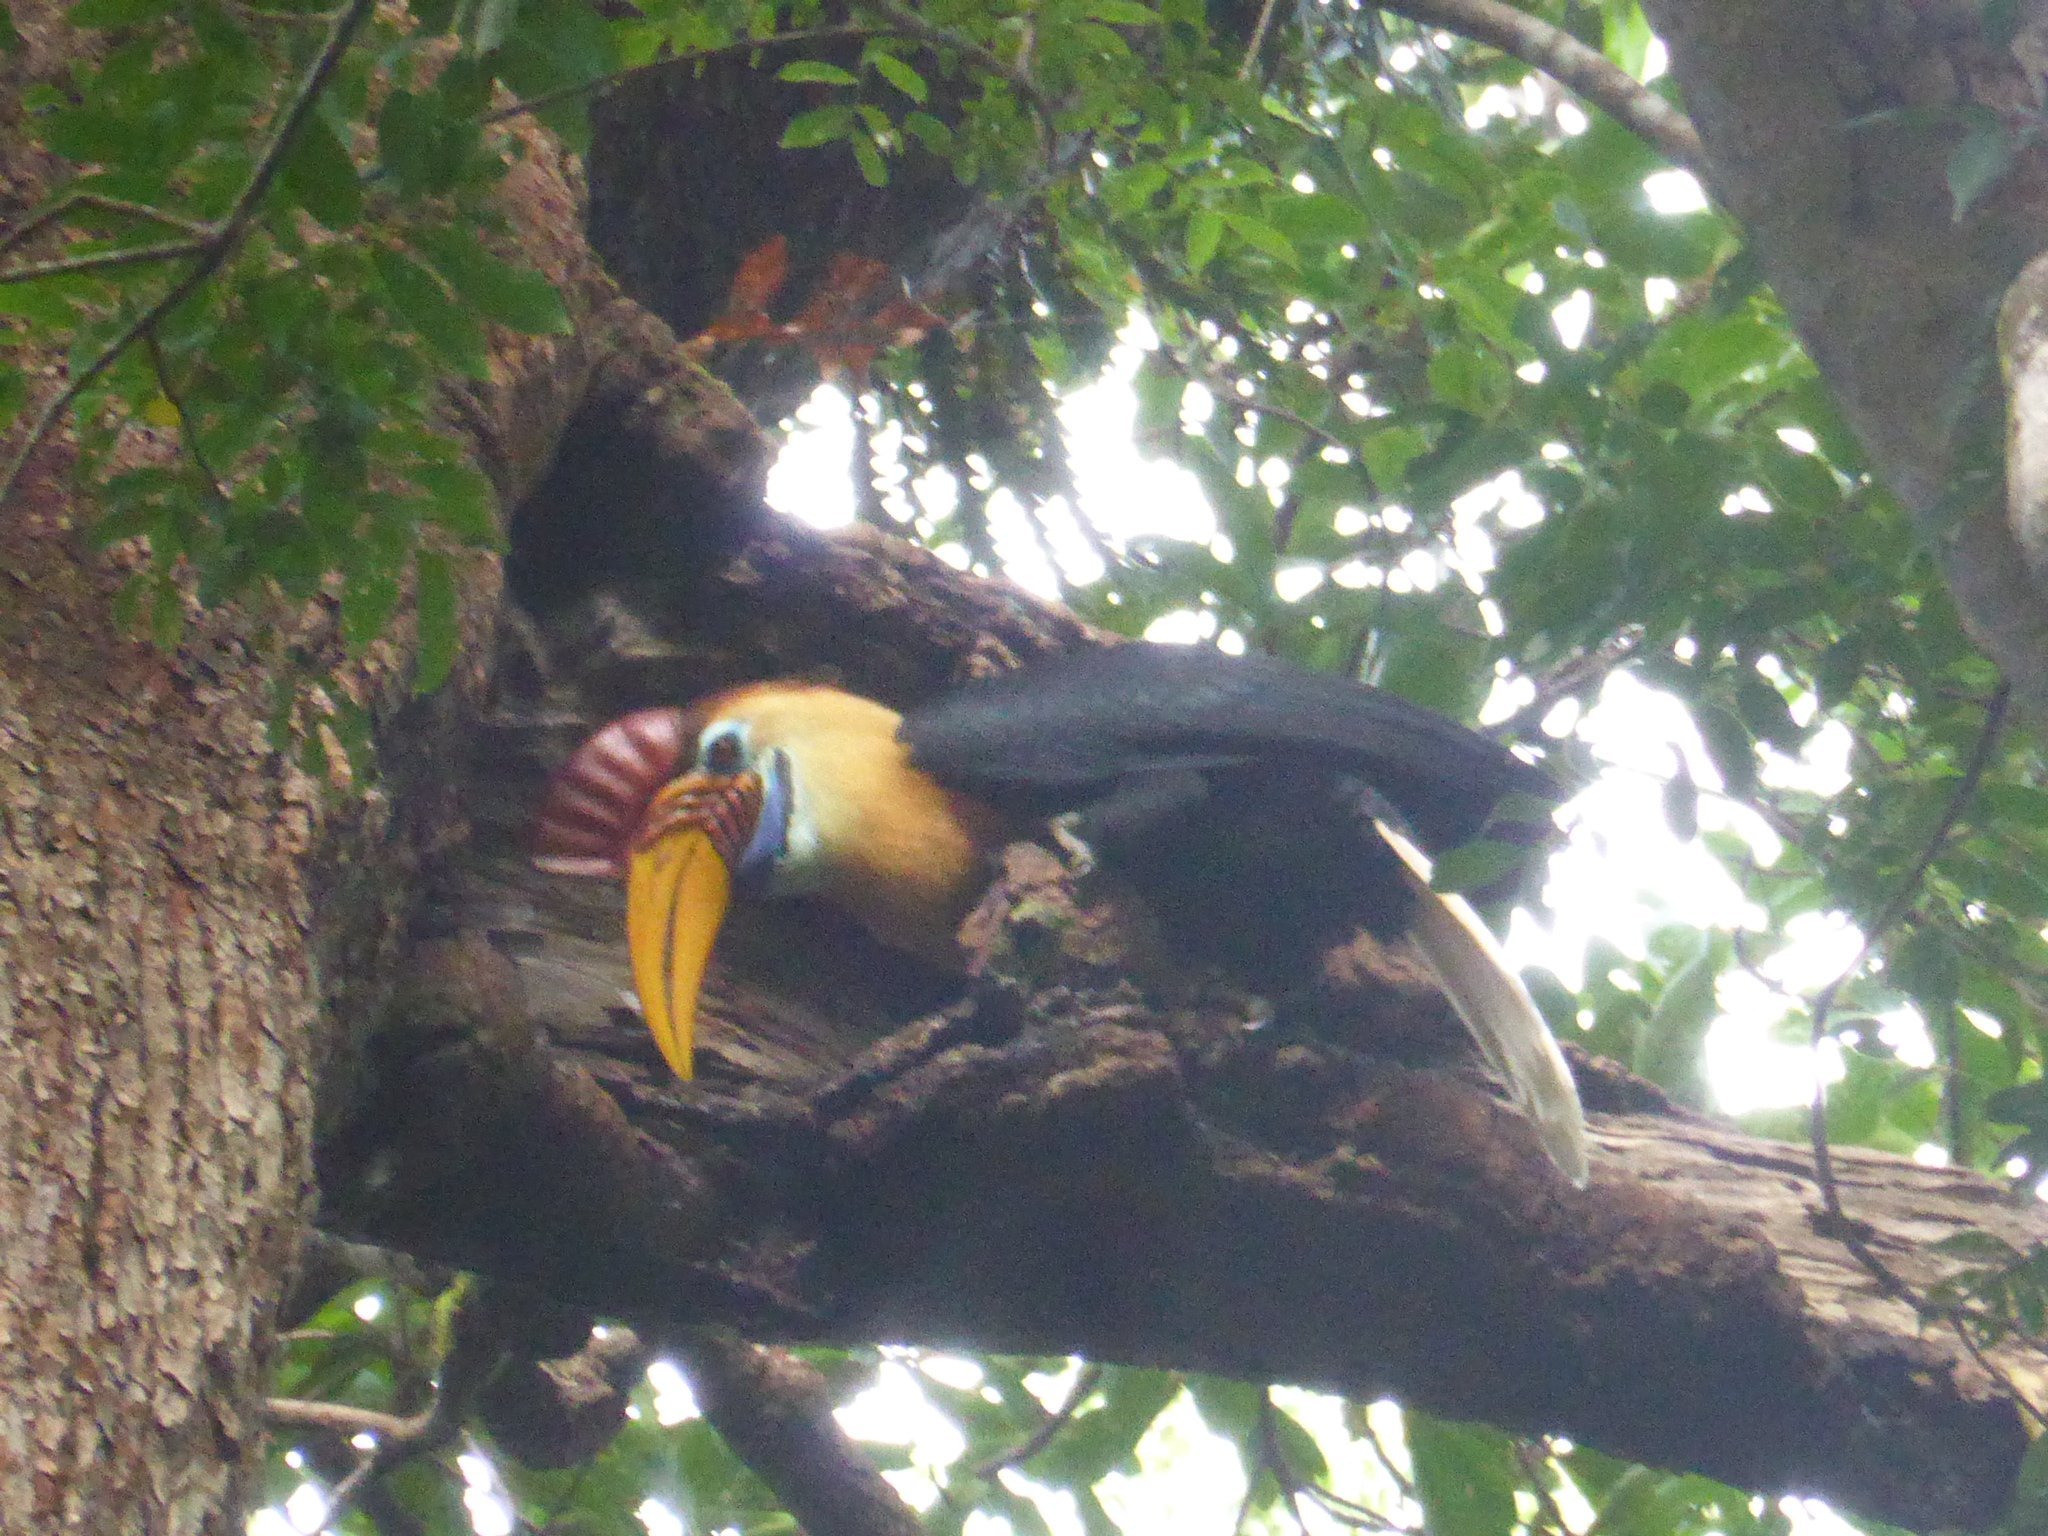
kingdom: Animalia
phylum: Chordata
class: Aves
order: Bucerotiformes
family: Bucerotidae
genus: Rhyticeros
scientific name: Rhyticeros cassidix
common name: Knobbed hornbill
